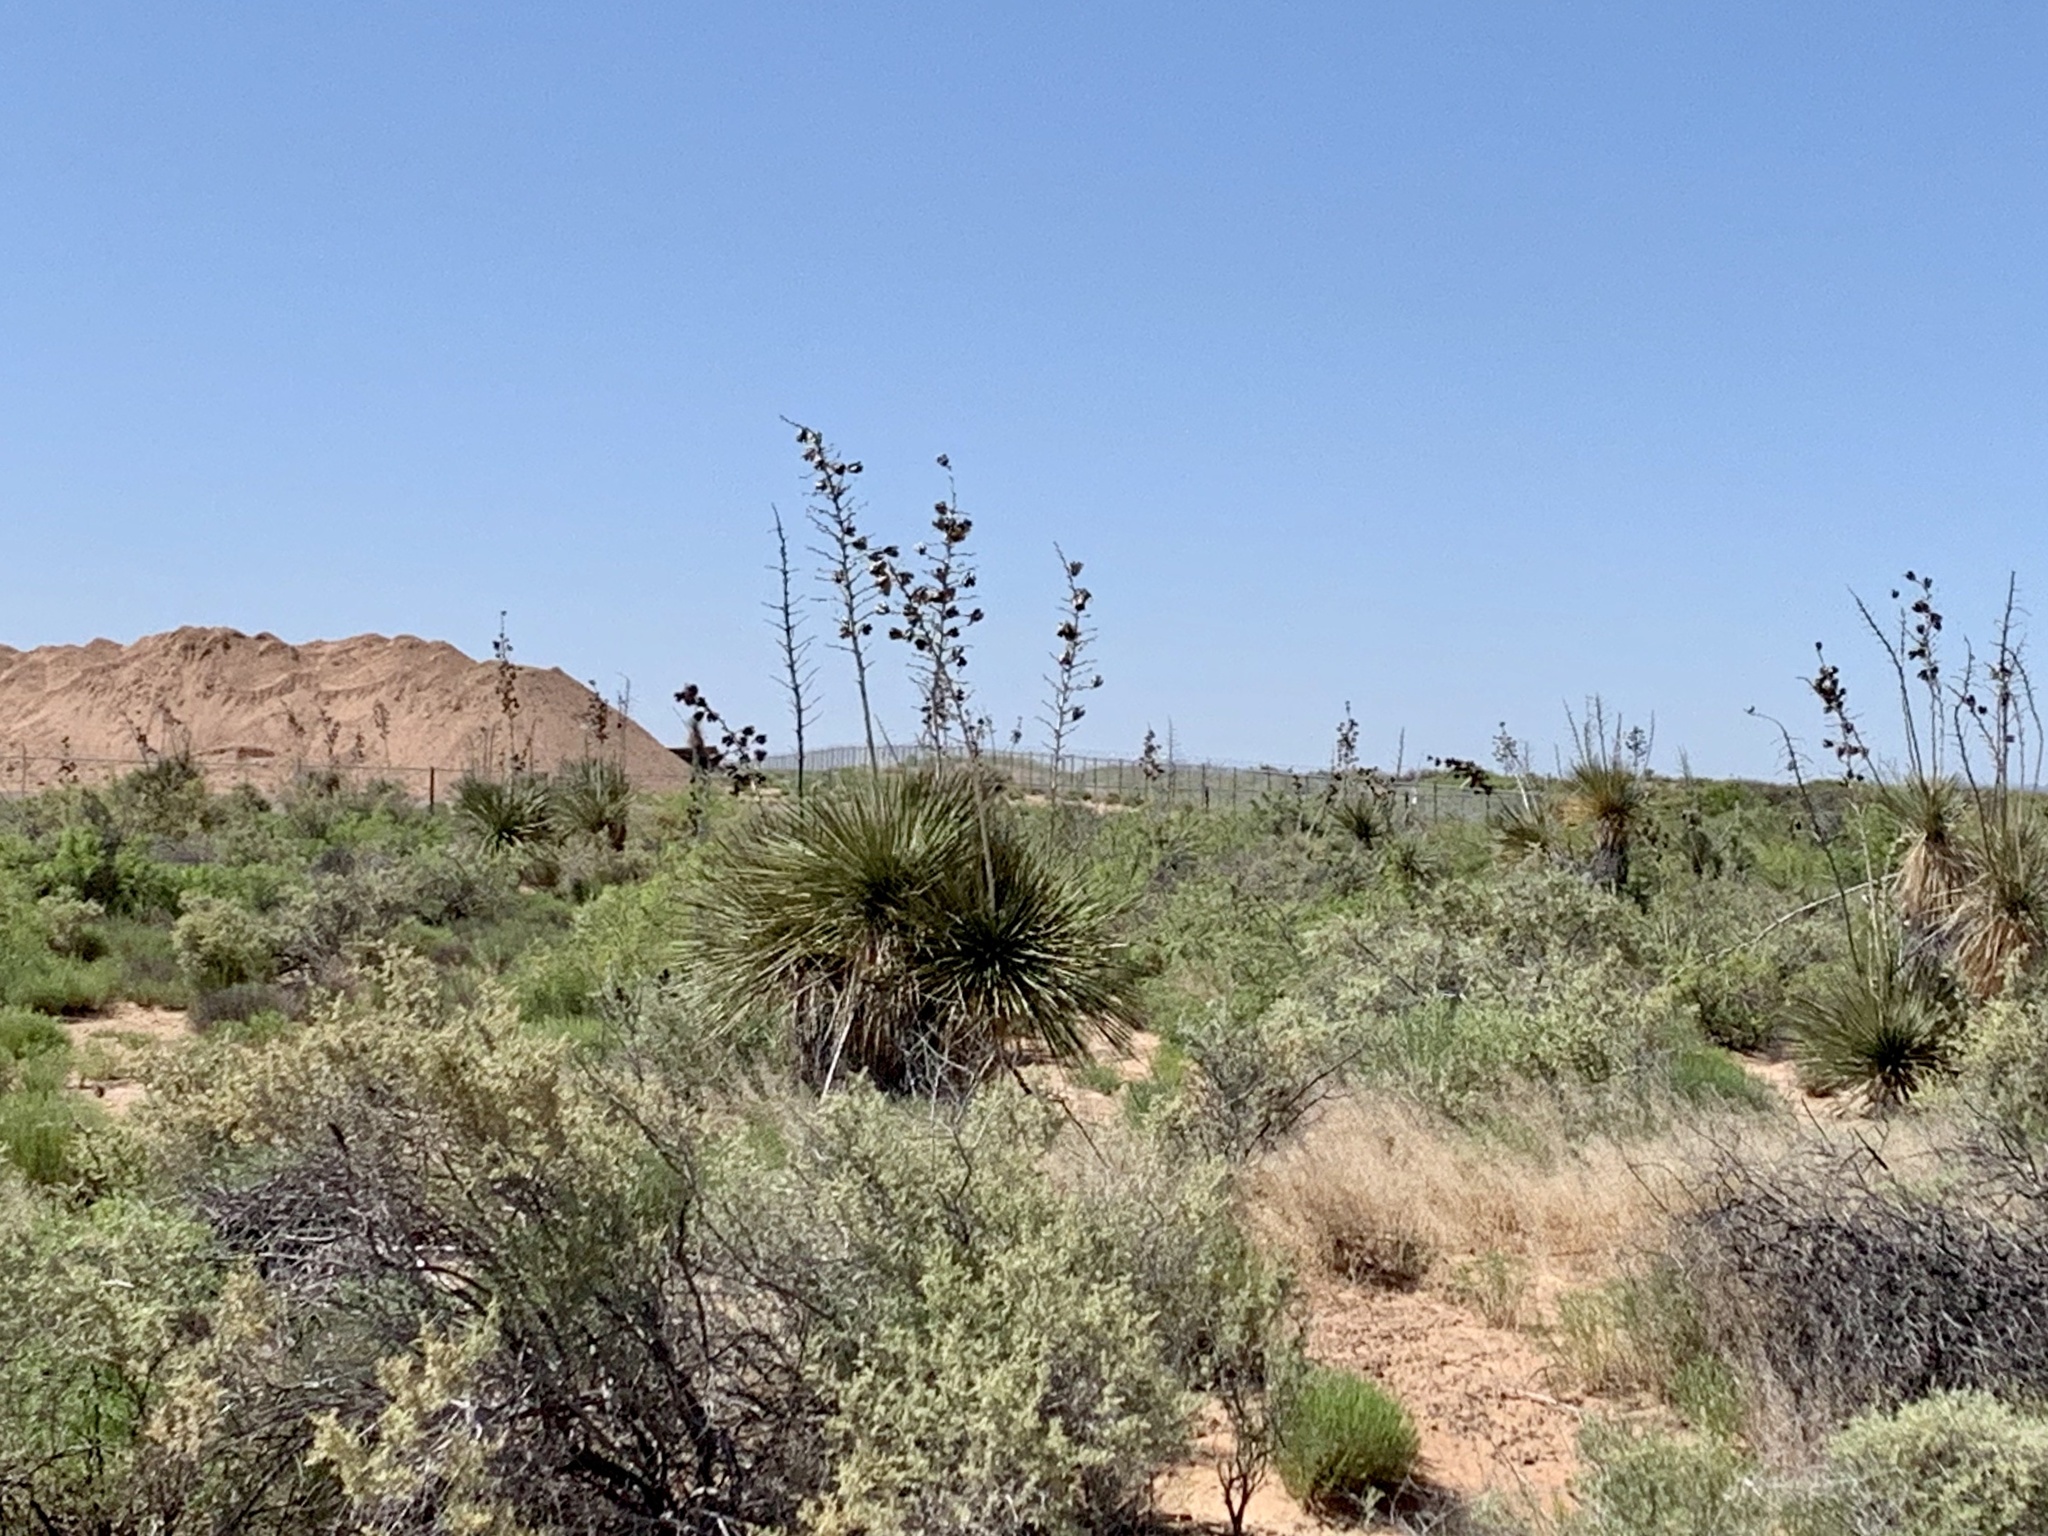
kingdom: Plantae
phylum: Tracheophyta
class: Liliopsida
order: Asparagales
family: Asparagaceae
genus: Yucca
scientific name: Yucca elata
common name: Palmella
